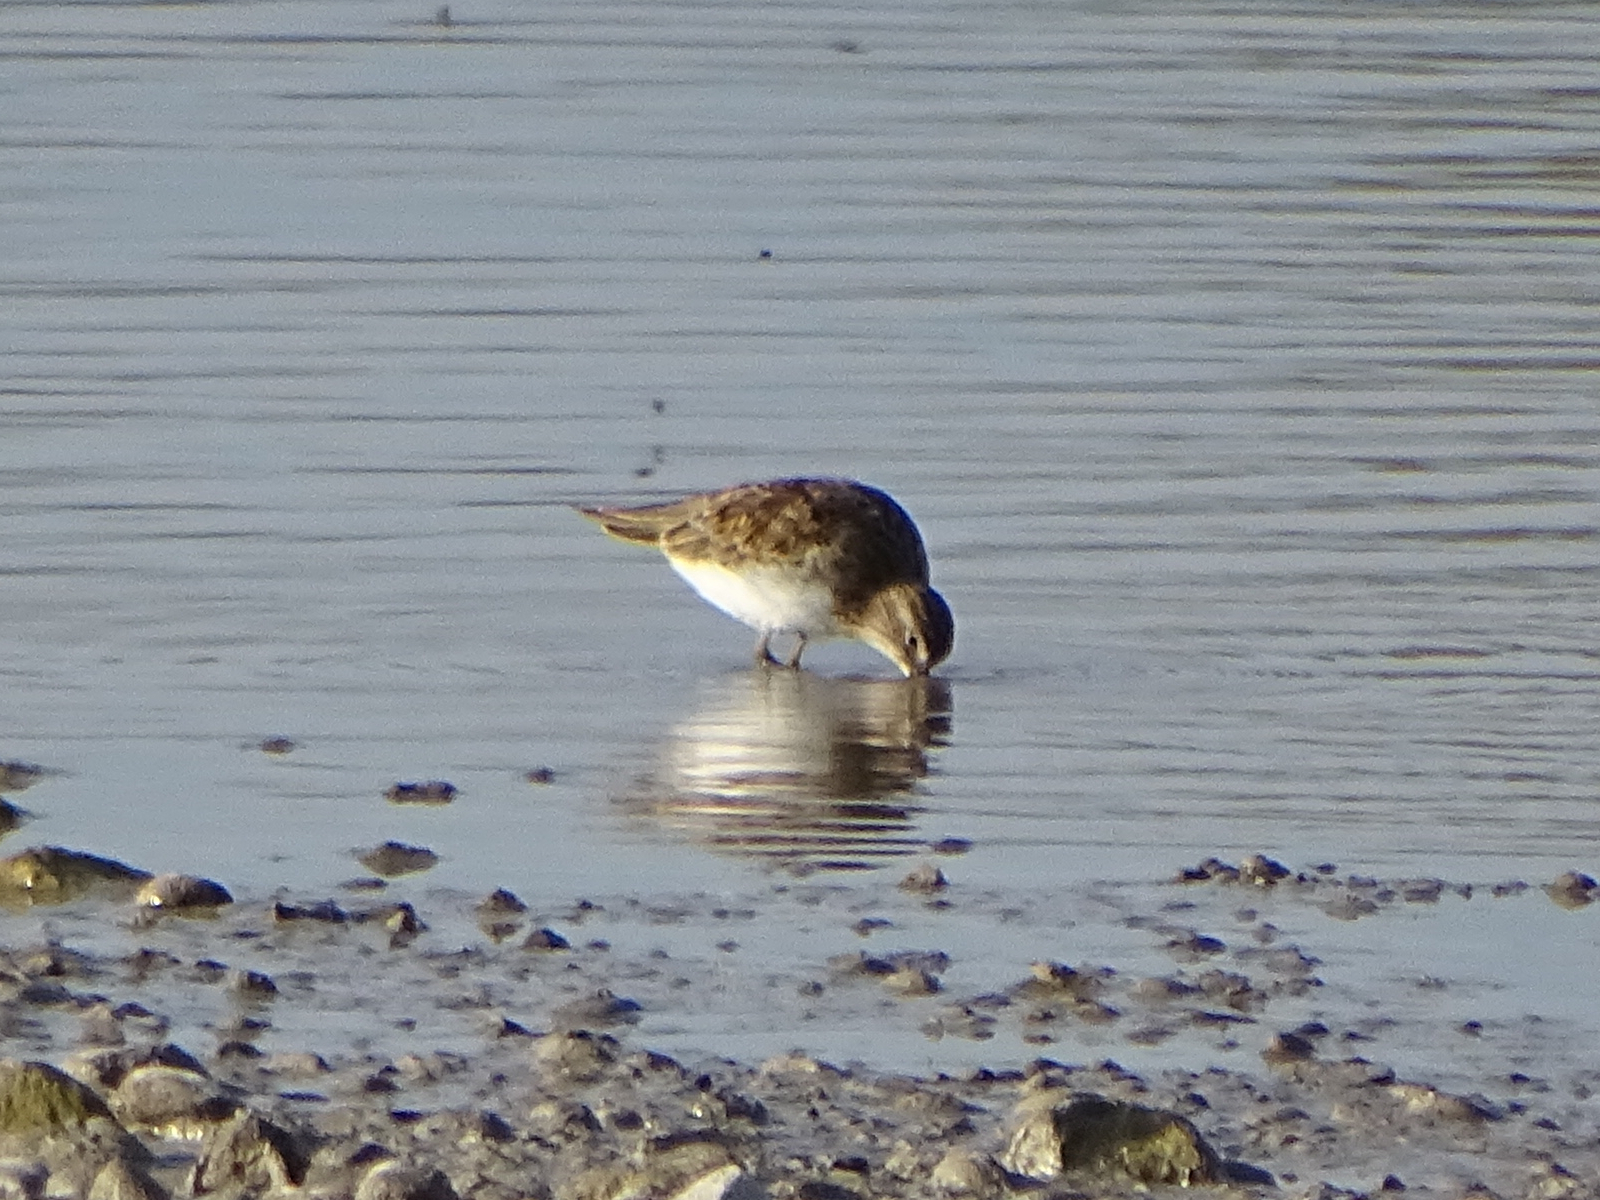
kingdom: Animalia
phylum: Chordata
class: Aves
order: Charadriiformes
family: Scolopacidae
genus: Calidris
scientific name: Calidris temminckii
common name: Temminck's stint
